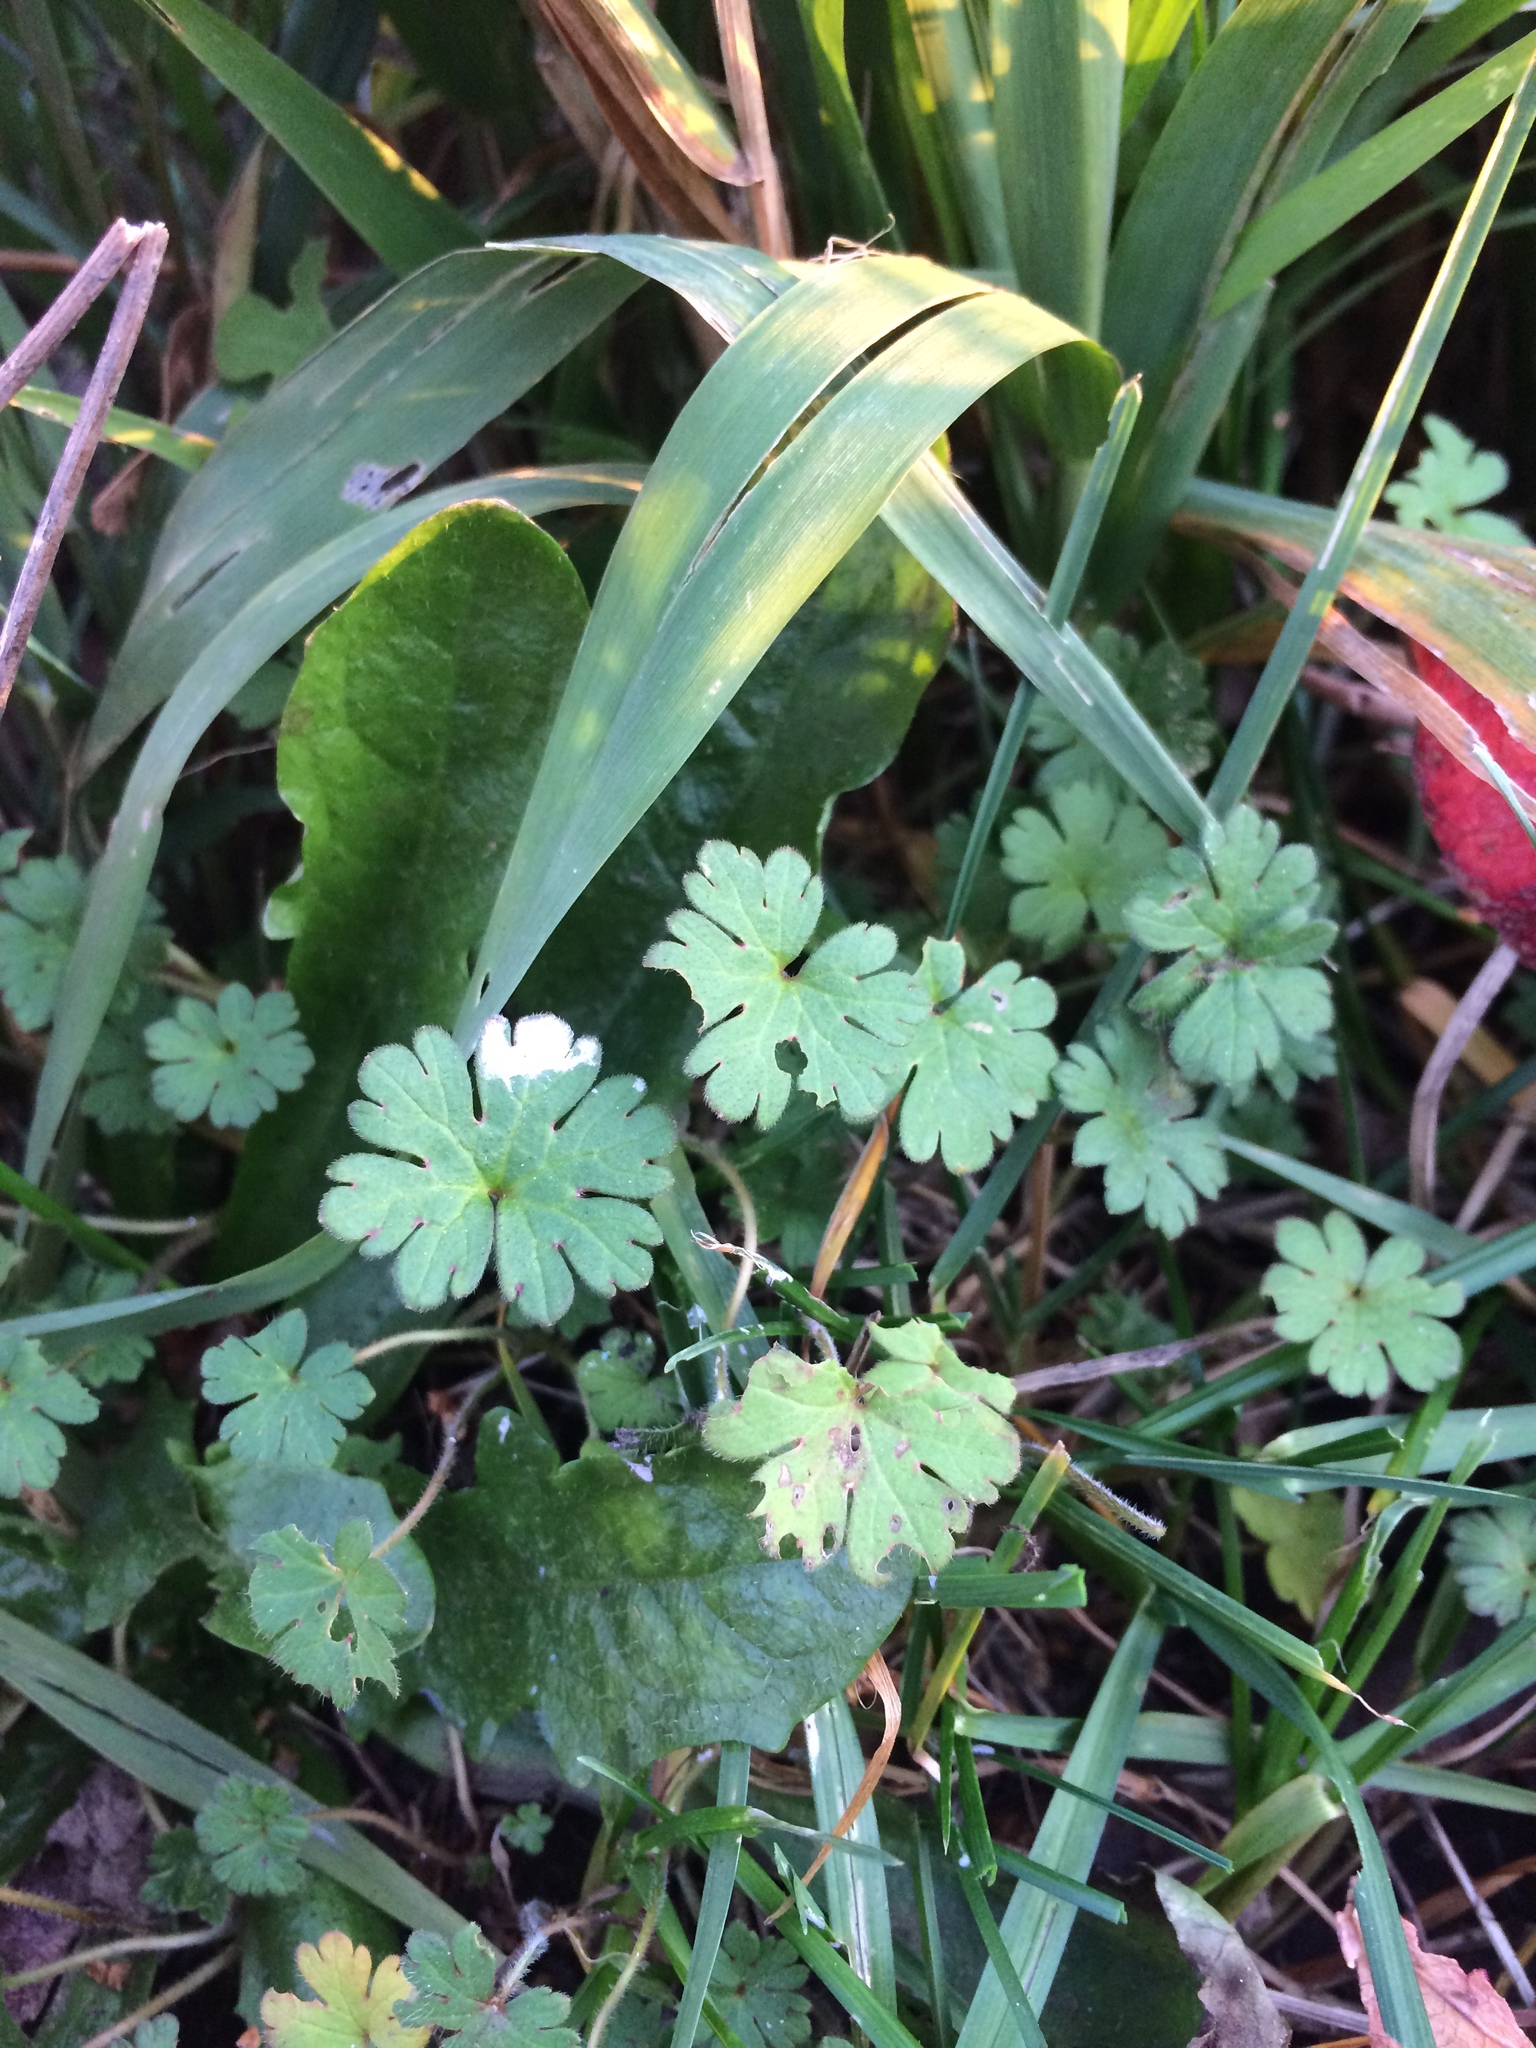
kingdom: Plantae
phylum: Tracheophyta
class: Magnoliopsida
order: Geraniales
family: Geraniaceae
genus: Geranium
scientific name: Geranium molle
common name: Dove's-foot crane's-bill
